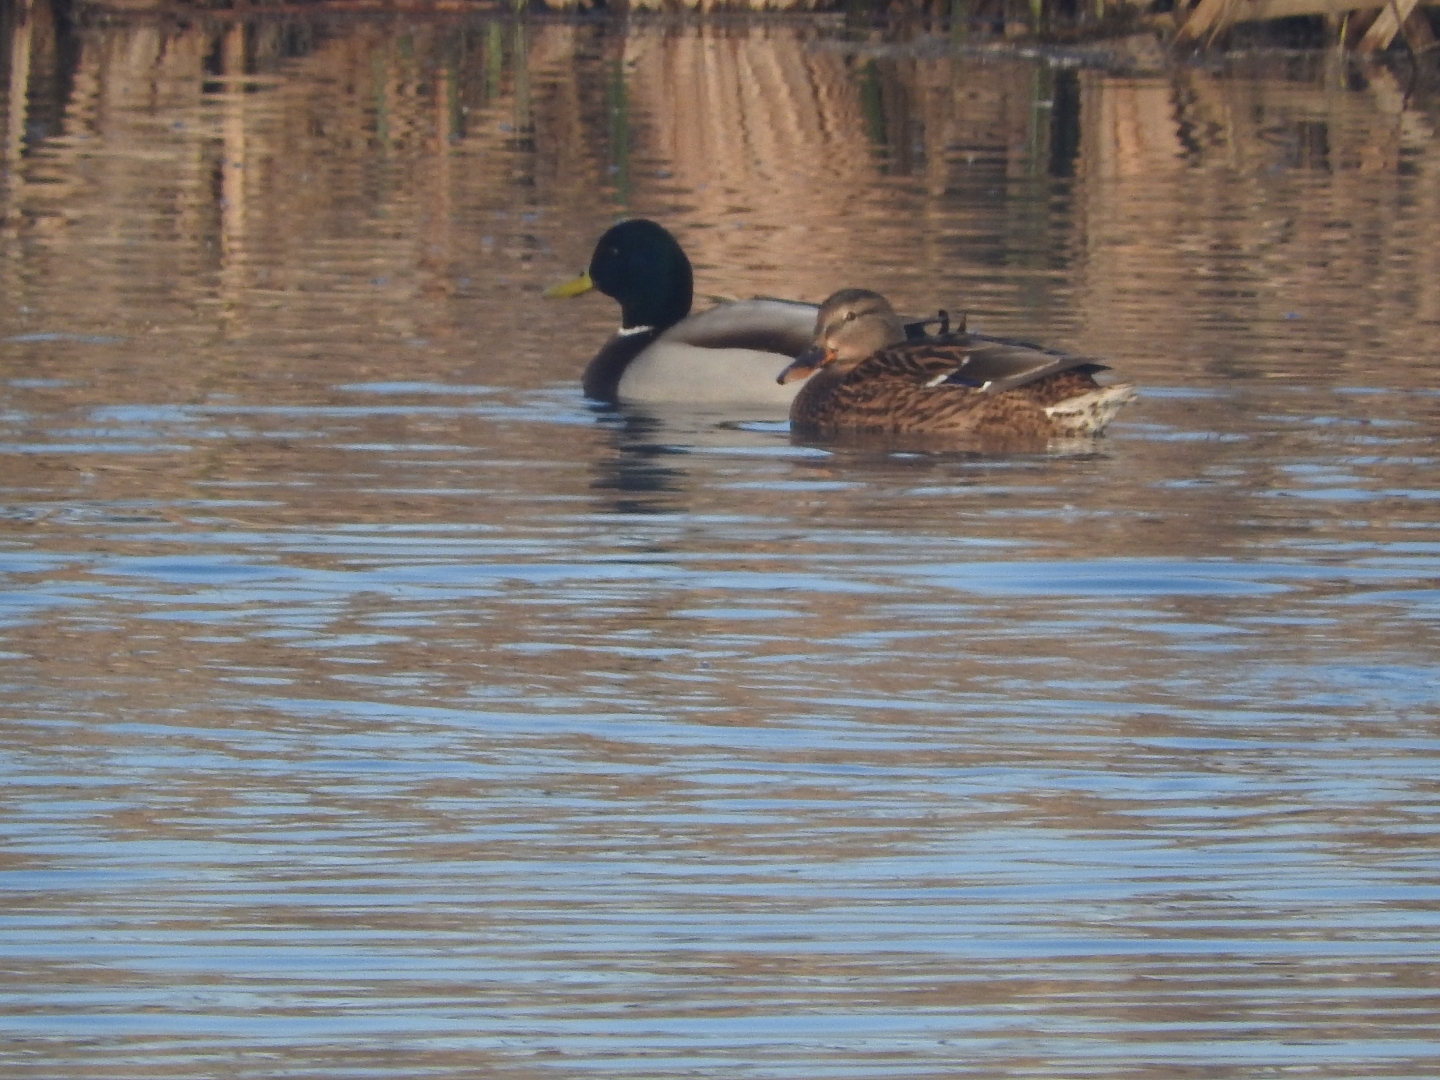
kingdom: Animalia
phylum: Chordata
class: Aves
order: Anseriformes
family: Anatidae
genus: Anas
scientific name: Anas platyrhynchos
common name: Mallard
